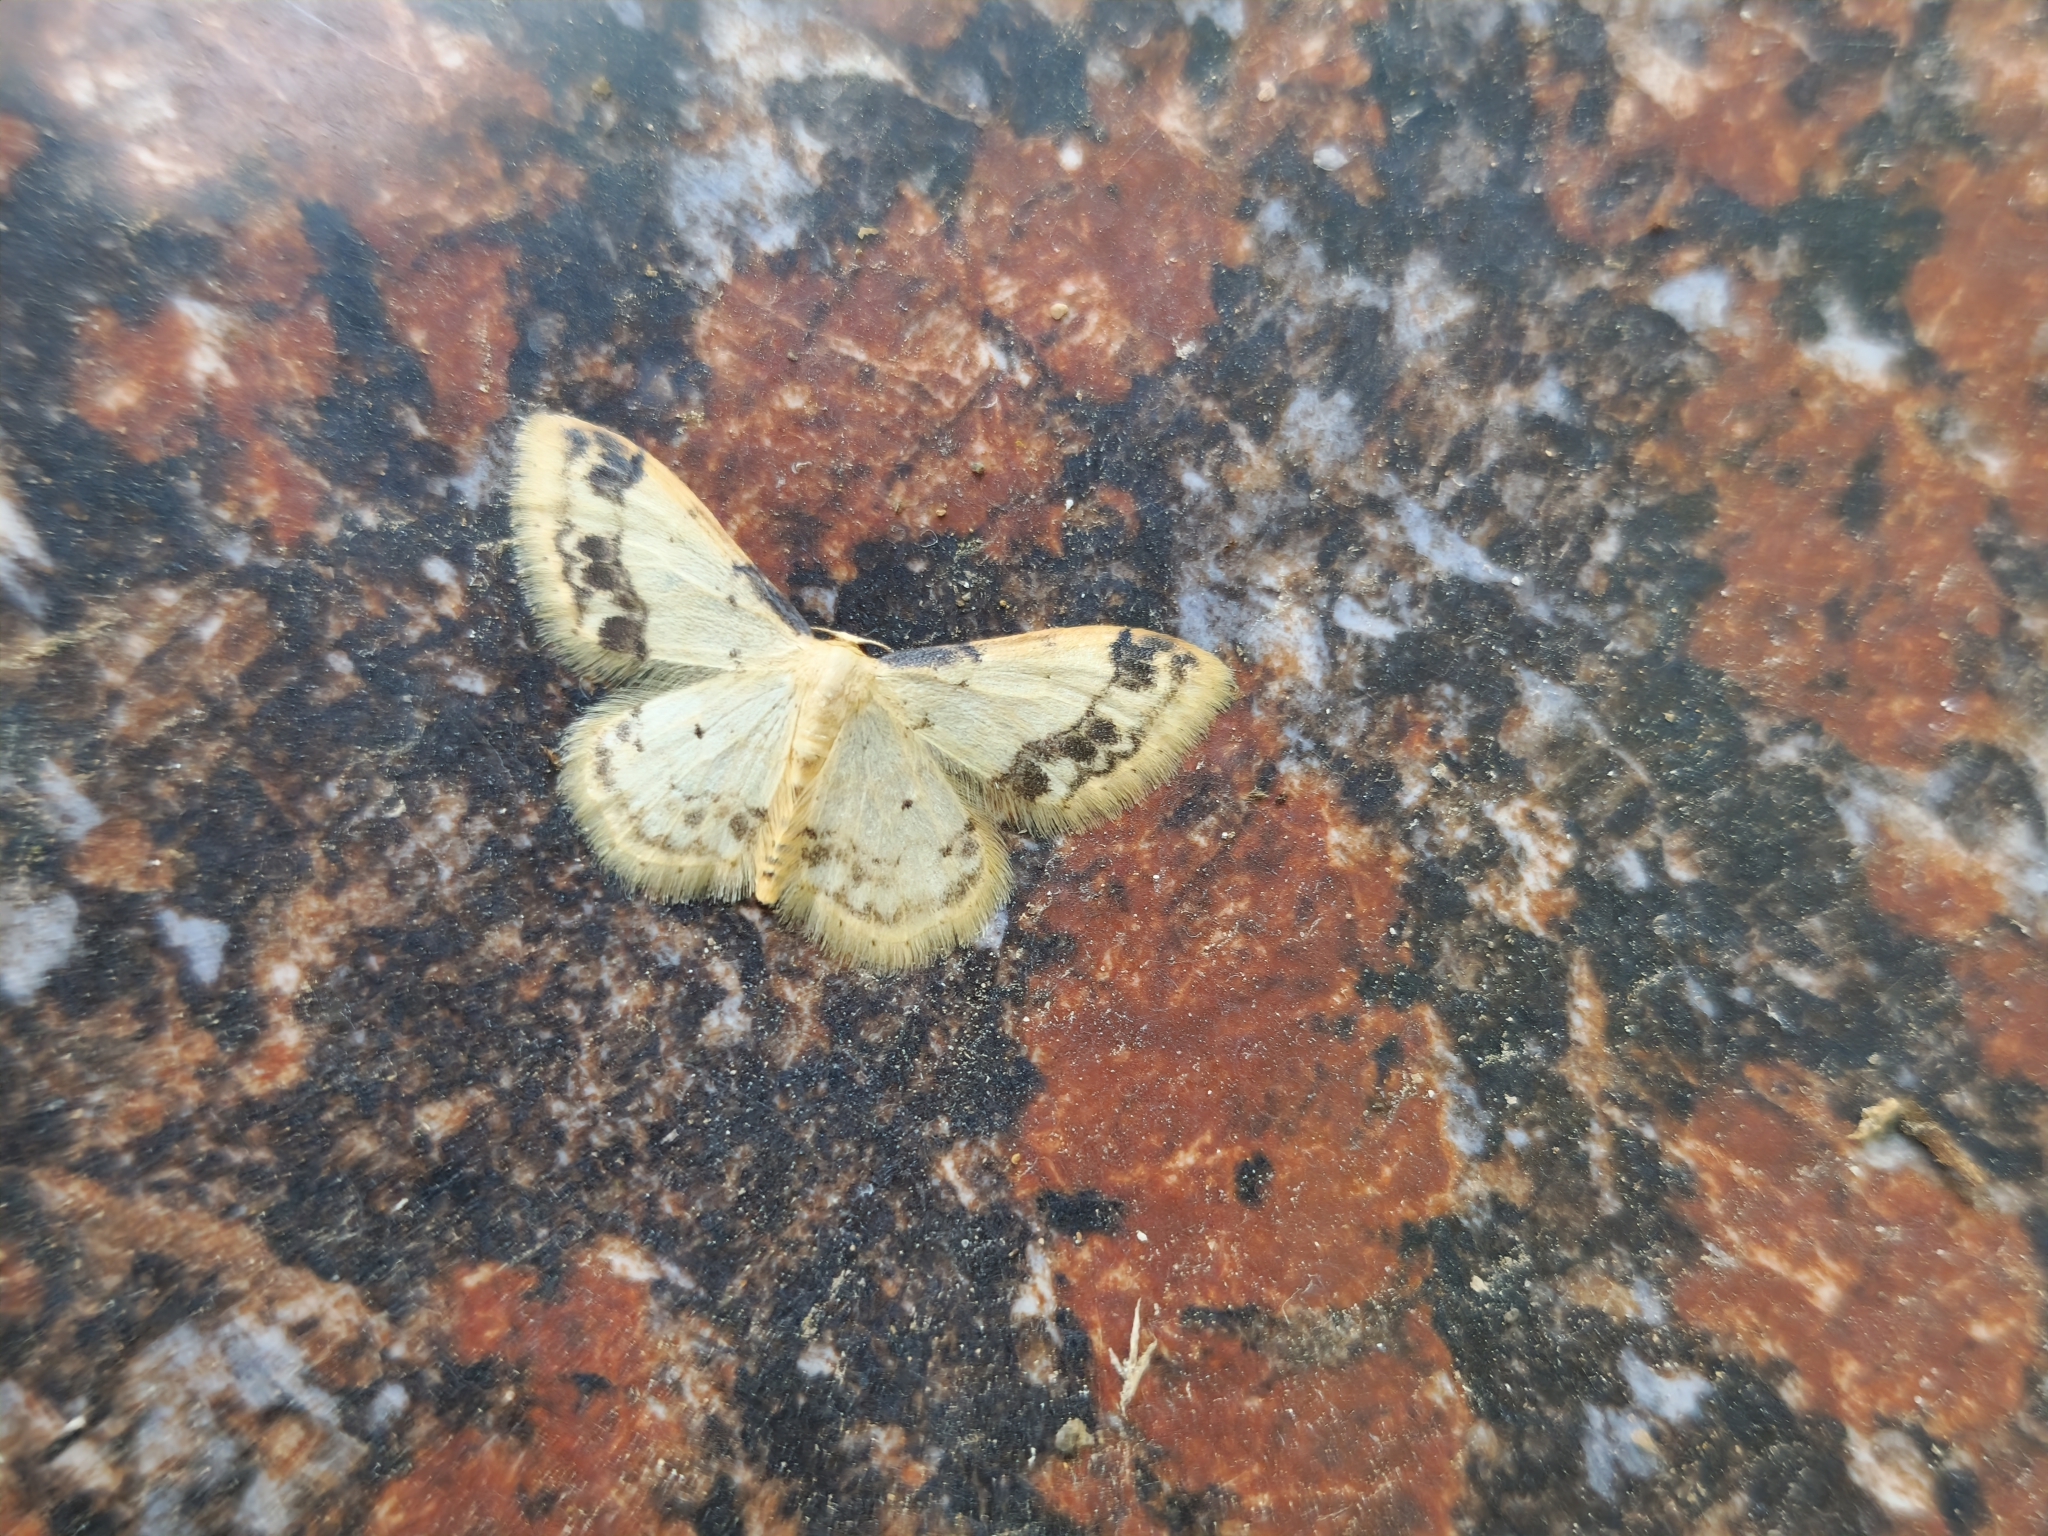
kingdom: Animalia
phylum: Arthropoda
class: Insecta
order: Lepidoptera
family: Geometridae
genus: Idaea
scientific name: Idaea trigeminata
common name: Treble brown spot
